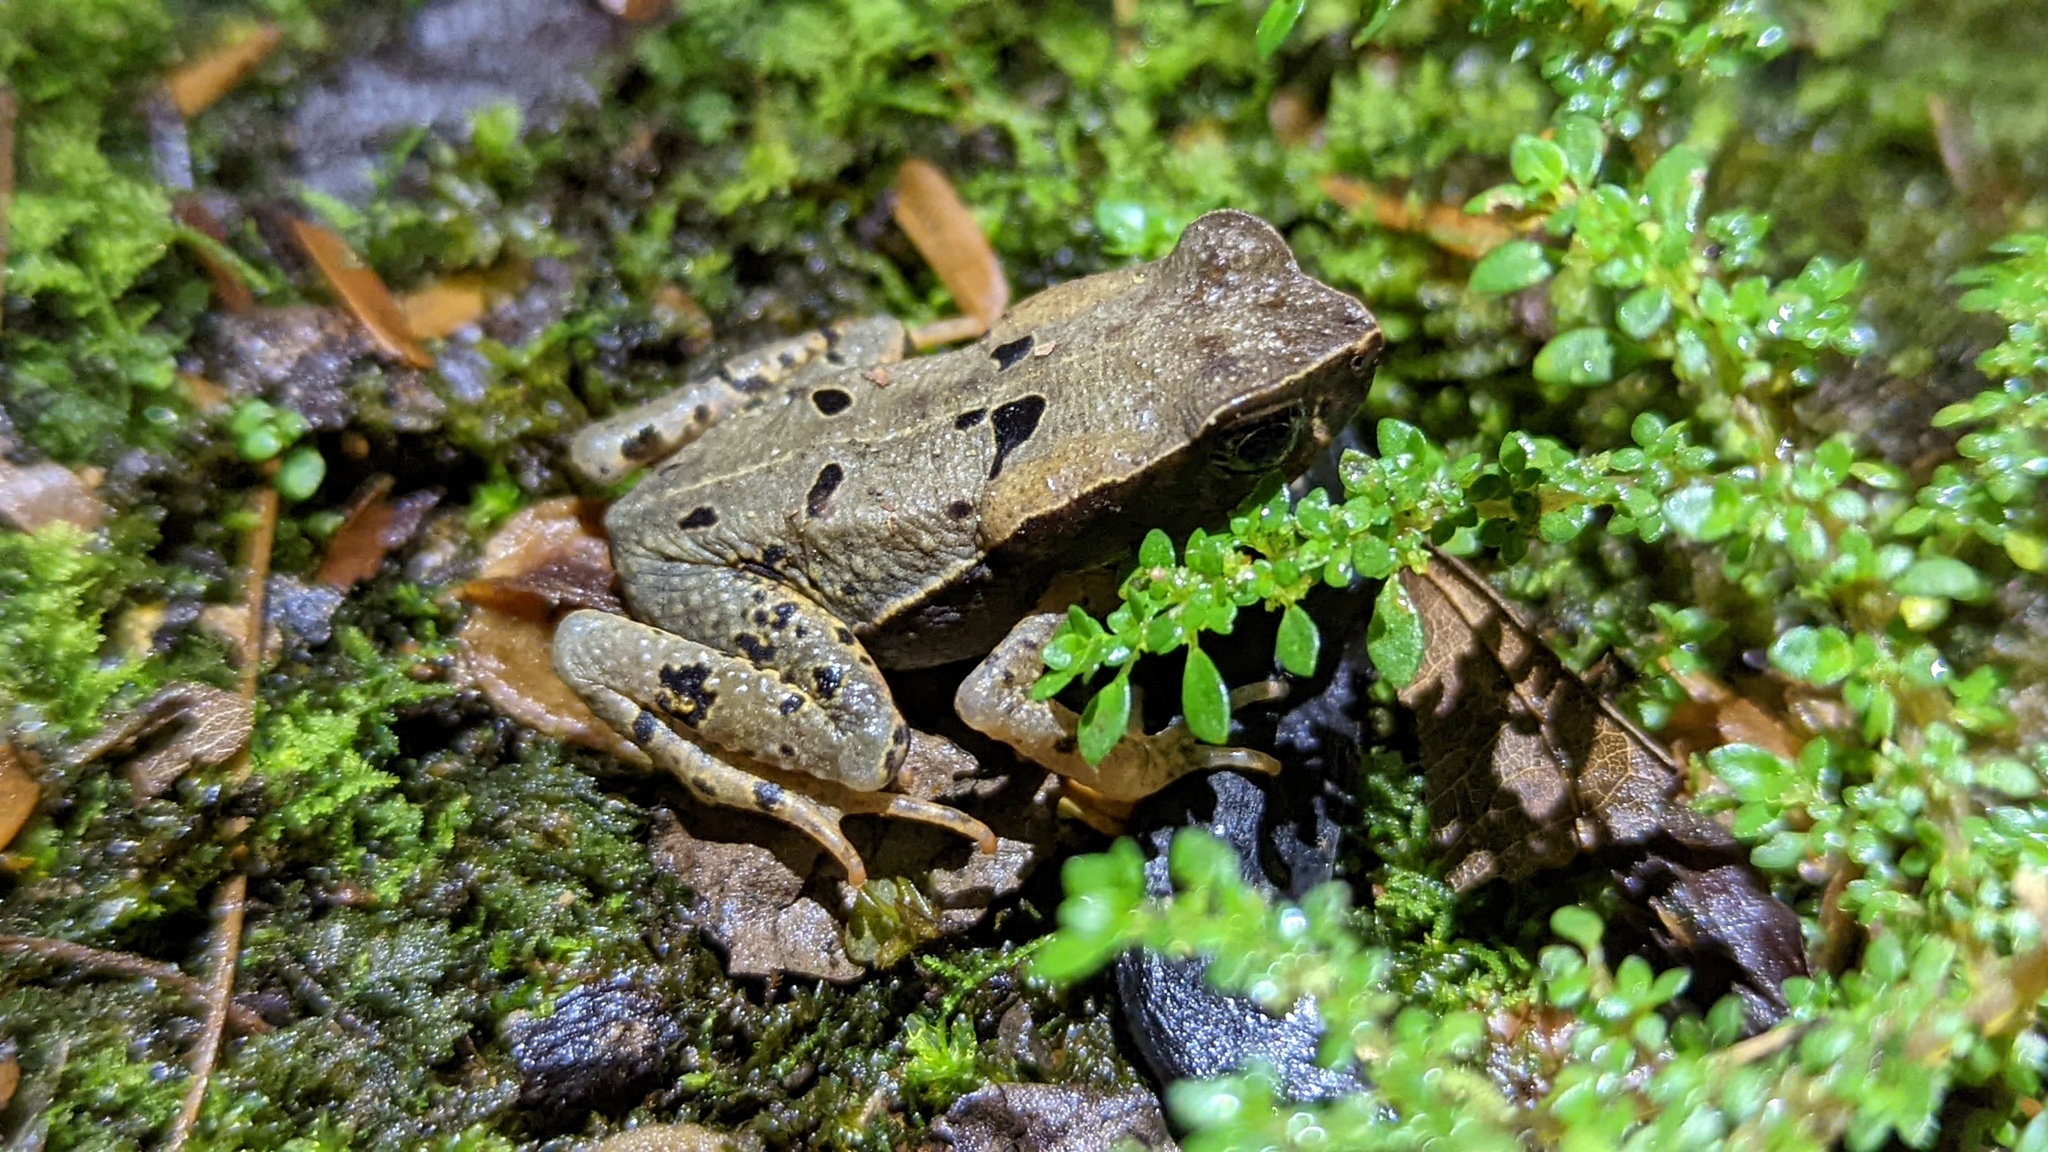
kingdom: Animalia
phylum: Chordata
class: Amphibia
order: Anura
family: Bufonidae
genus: Rhaebo
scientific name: Rhaebo haematiticus
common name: Truando toad
